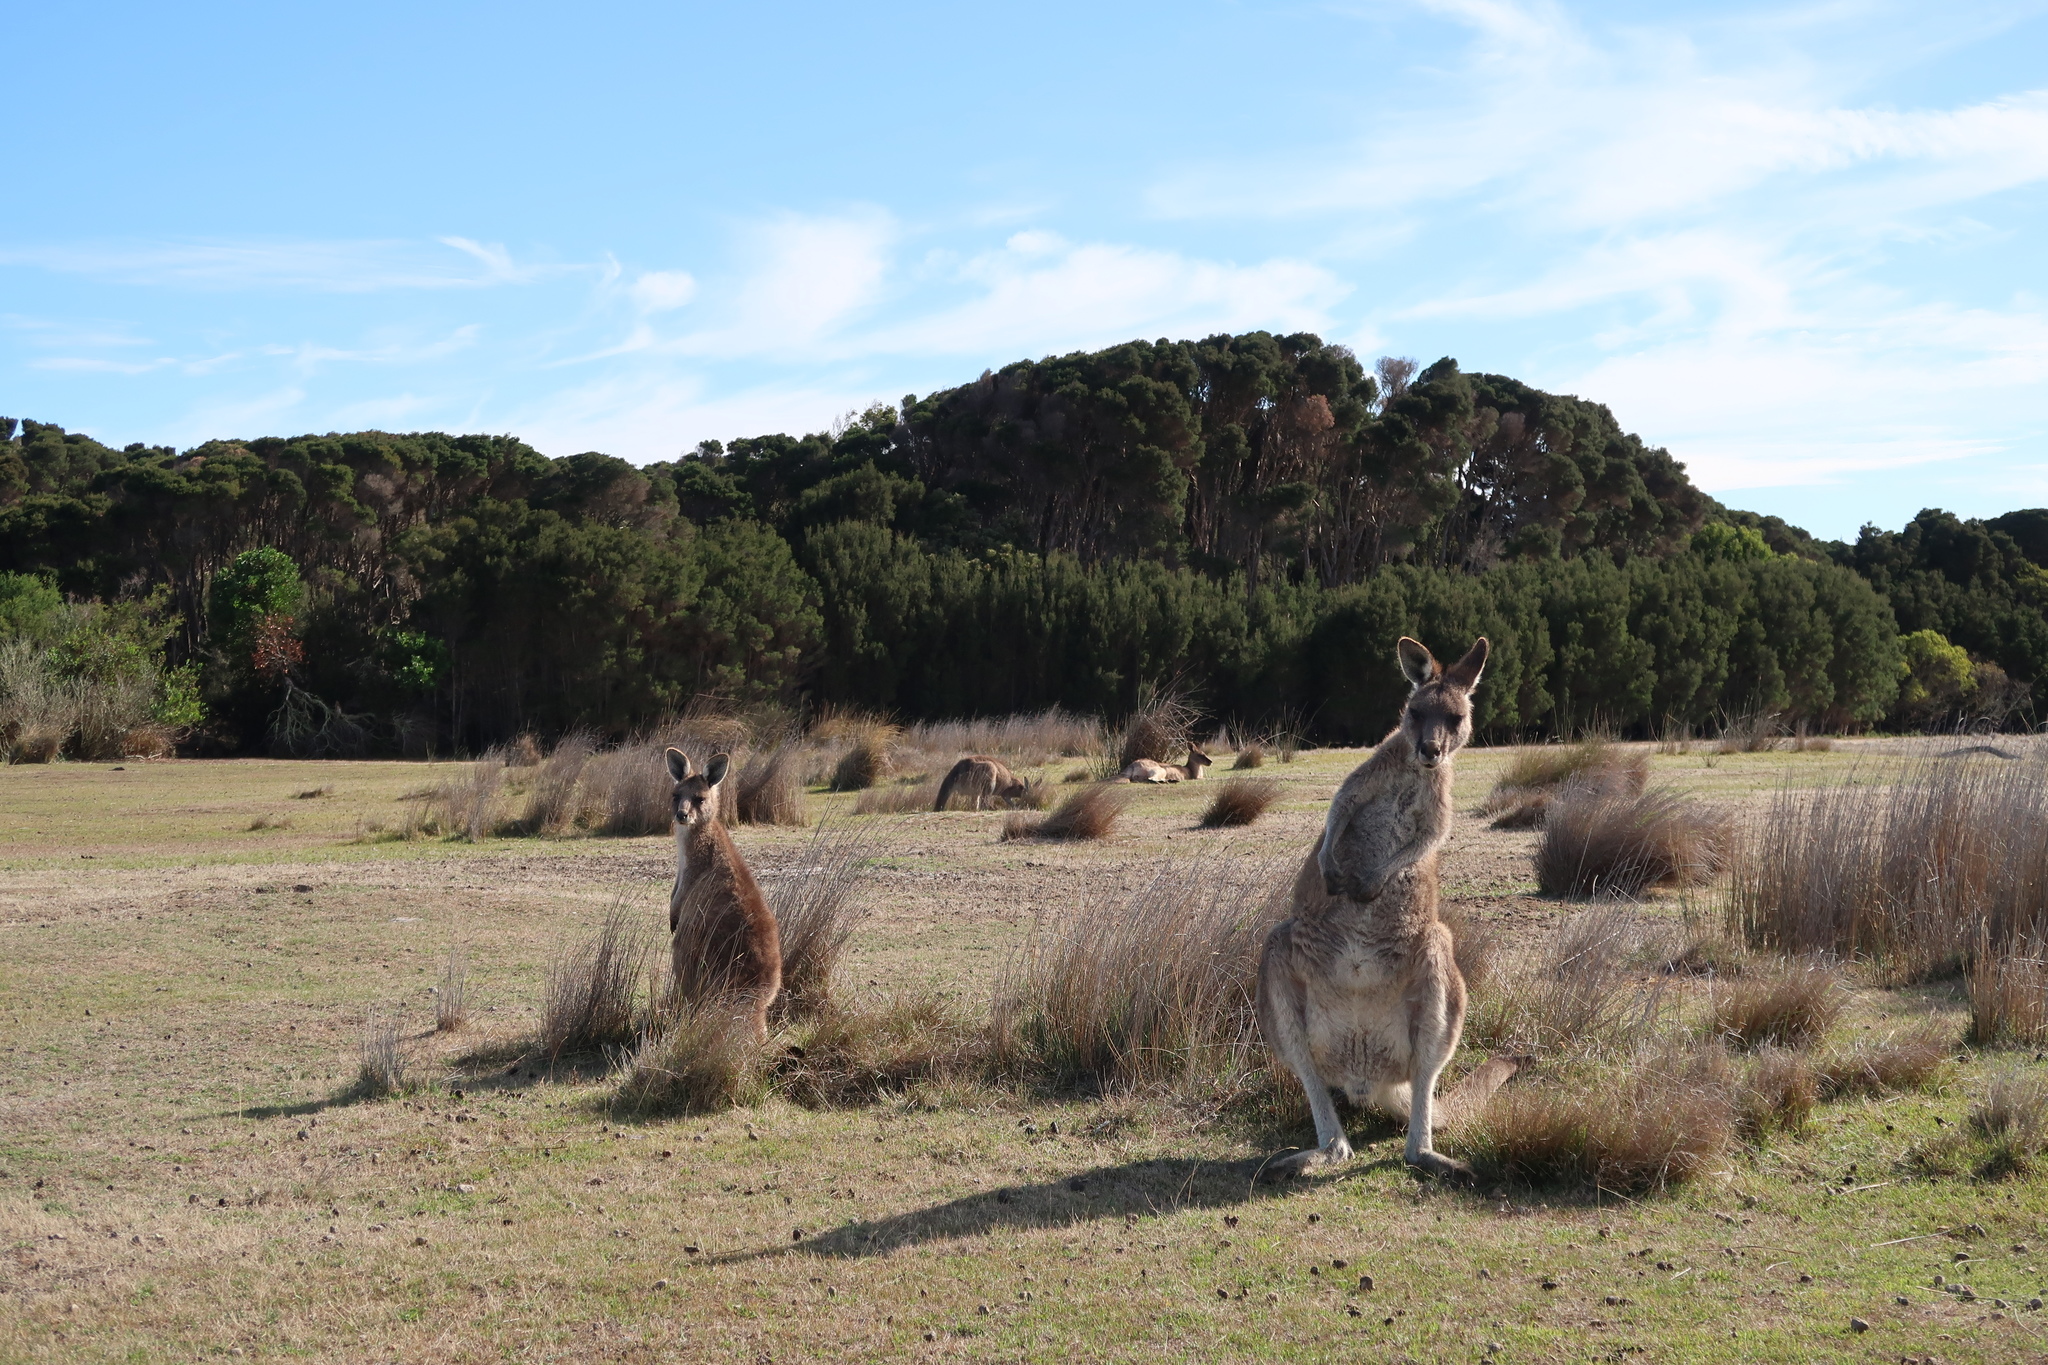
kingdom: Animalia
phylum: Chordata
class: Mammalia
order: Diprotodontia
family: Macropodidae
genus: Macropus
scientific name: Macropus giganteus
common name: Eastern grey kangaroo
